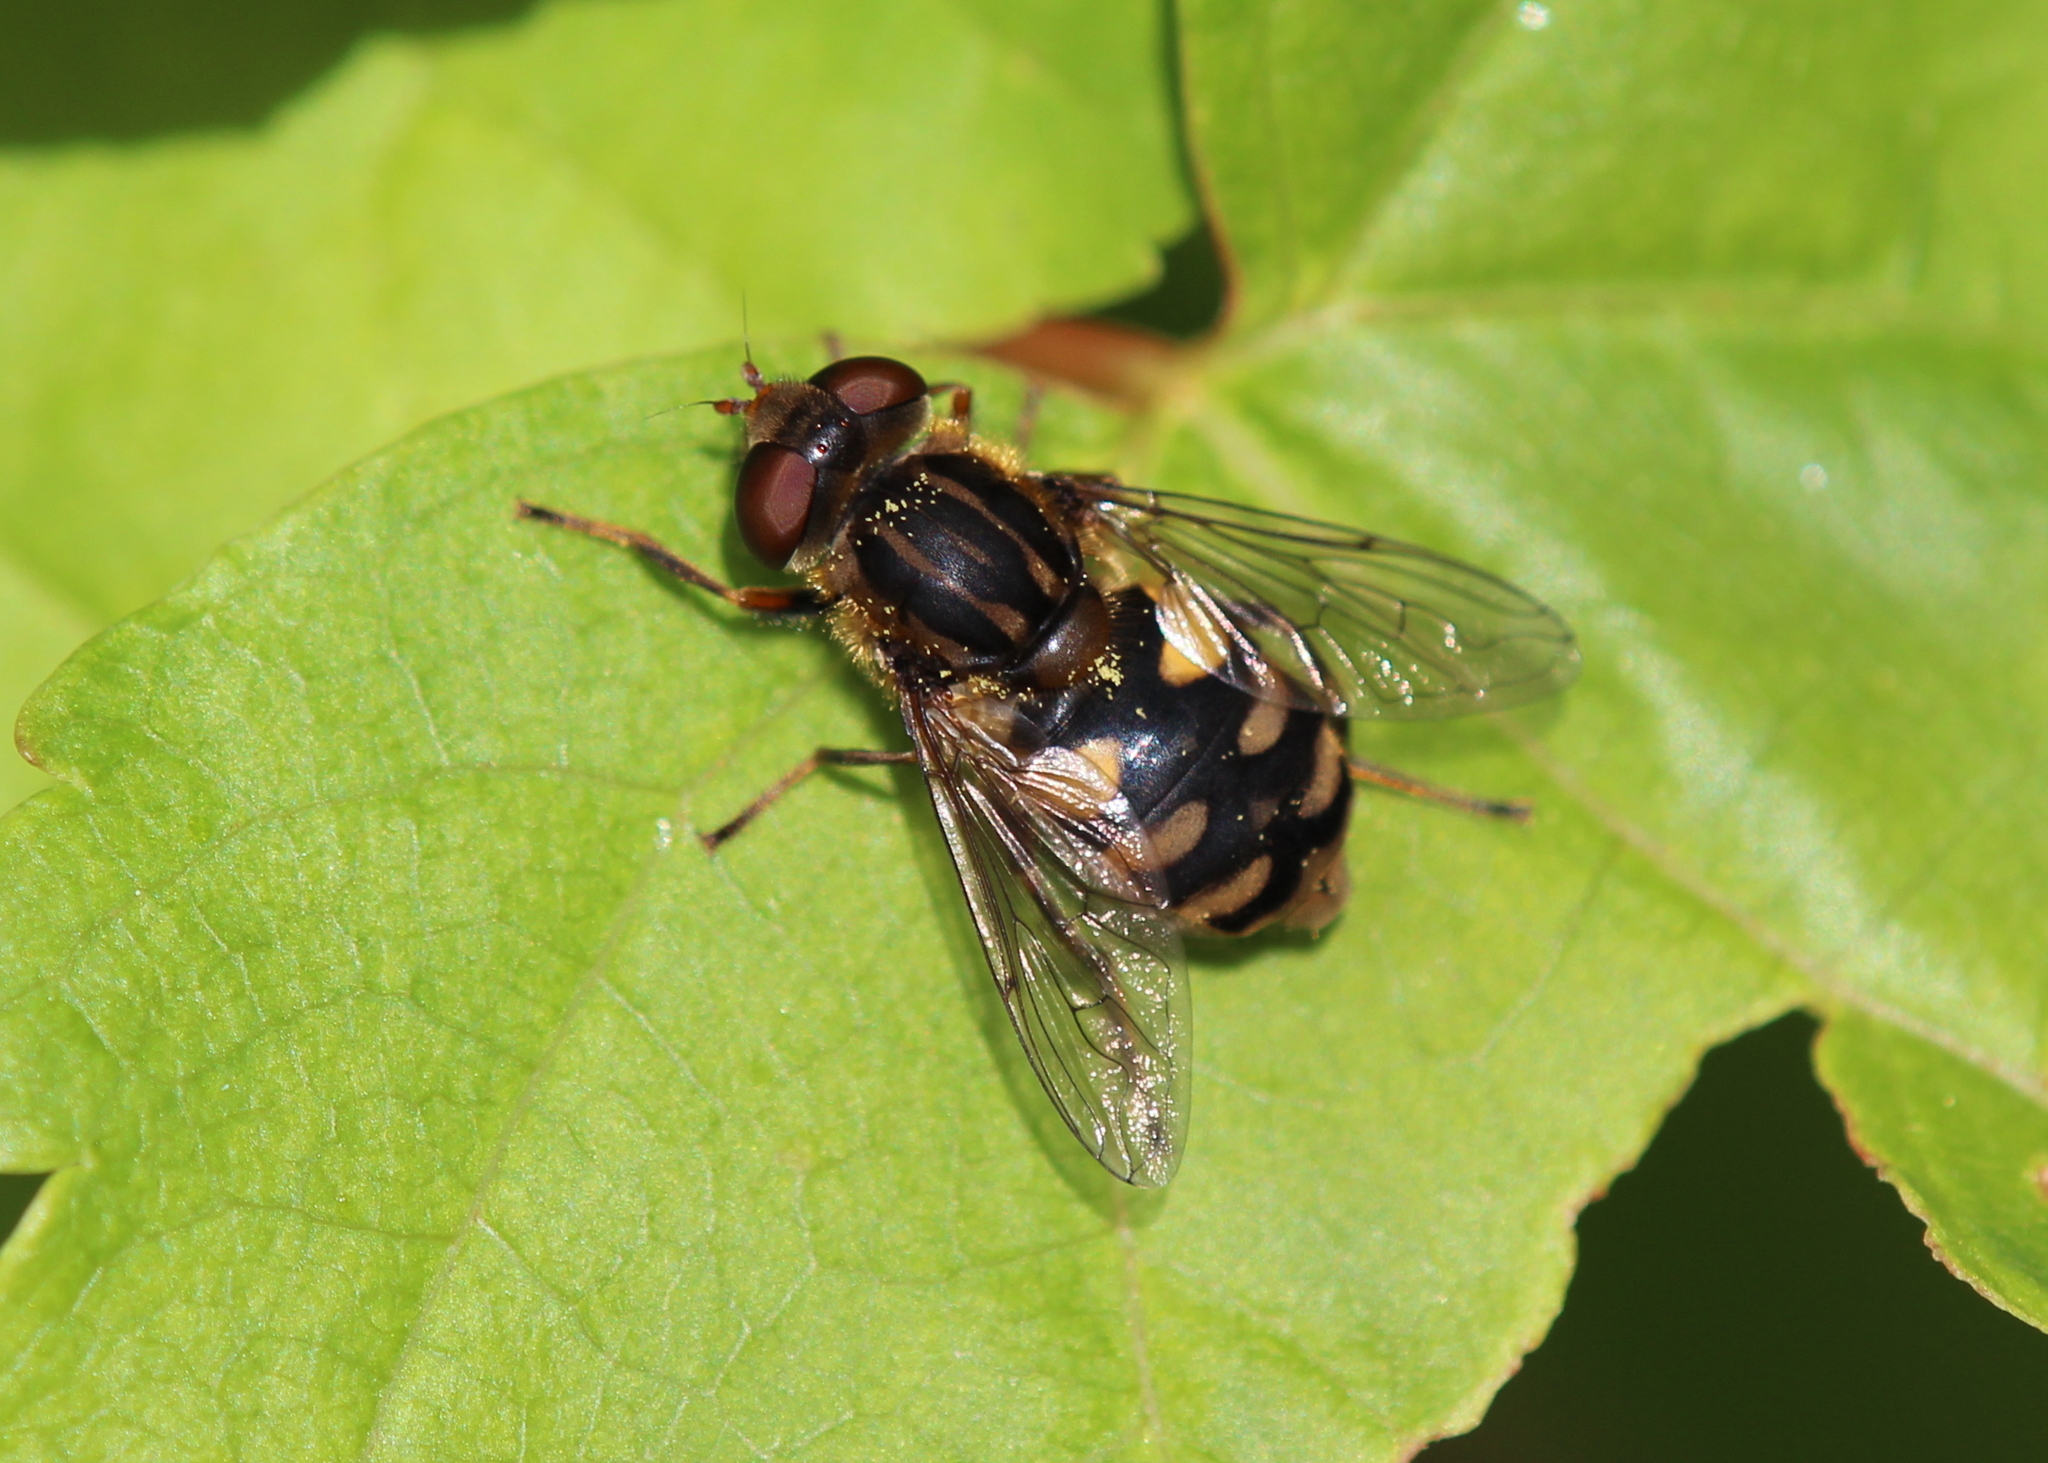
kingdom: Animalia
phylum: Arthropoda
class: Insecta
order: Diptera
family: Syrphidae
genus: Parhelophilus
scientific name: Parhelophilus rex
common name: Dusky bog fly
